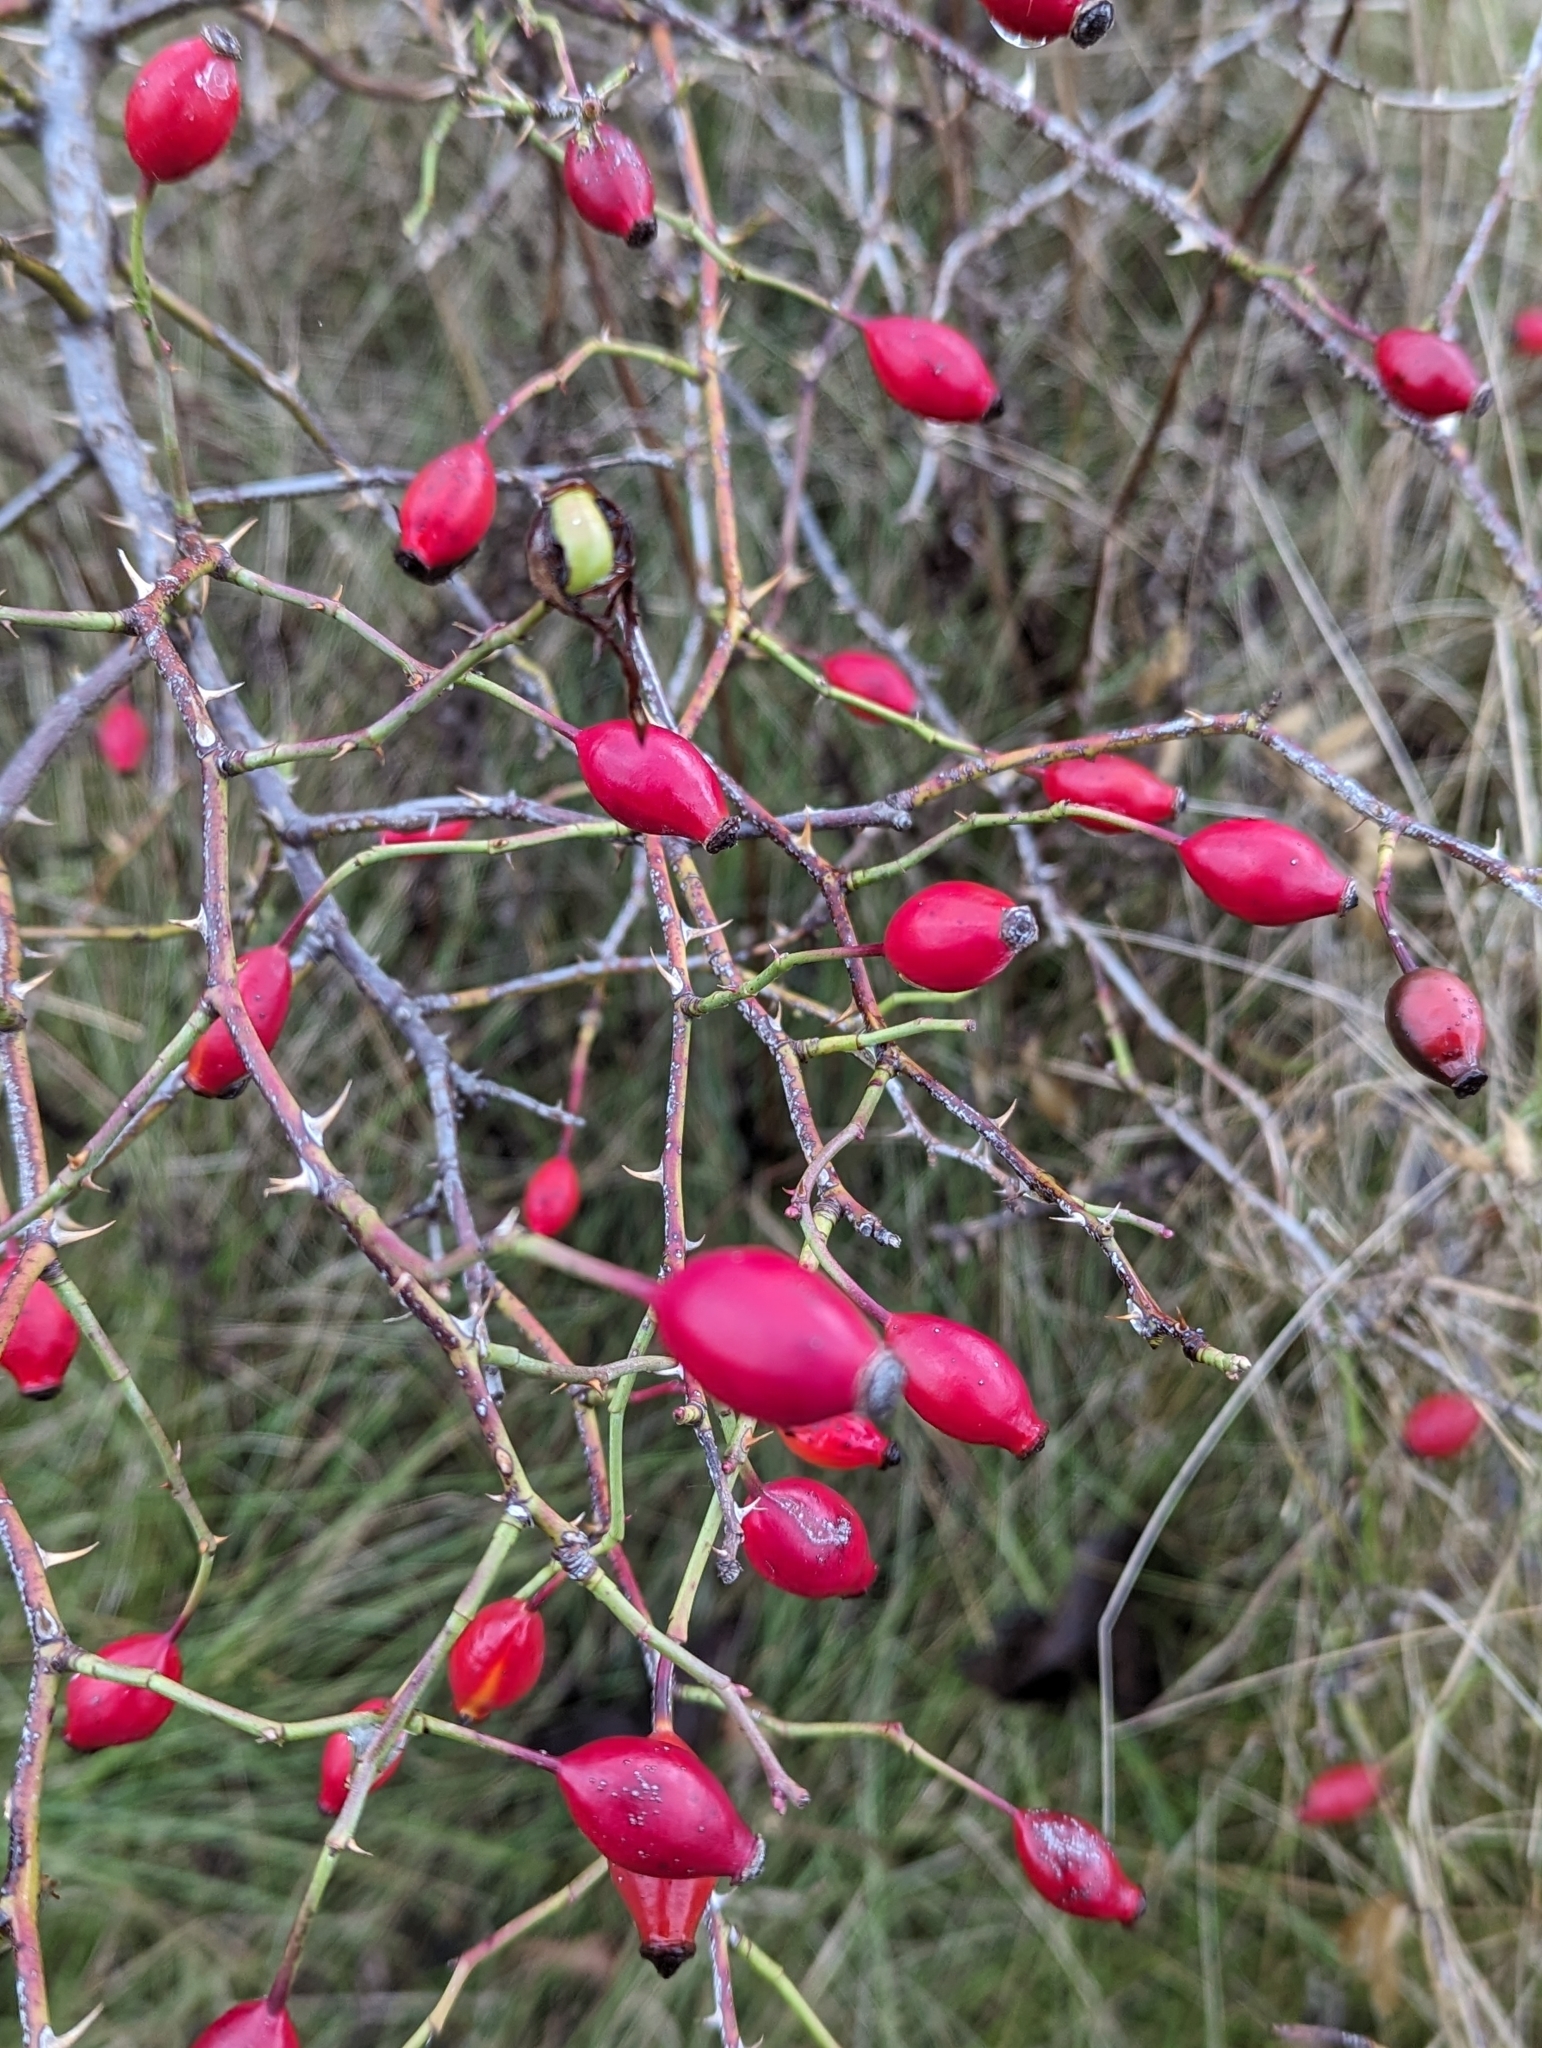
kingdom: Plantae
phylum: Tracheophyta
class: Magnoliopsida
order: Rosales
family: Rosaceae
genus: Rosa
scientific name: Rosa multiflora
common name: Multiflora rose
